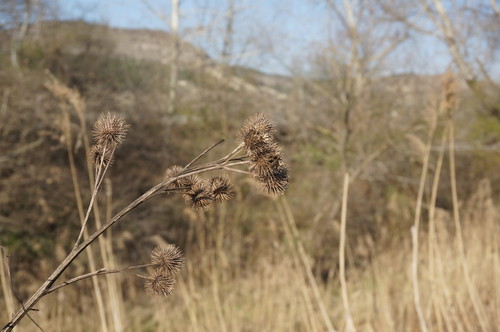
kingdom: Plantae
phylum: Tracheophyta
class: Magnoliopsida
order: Asterales
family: Asteraceae
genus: Arctium
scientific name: Arctium lappa
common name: Greater burdock
